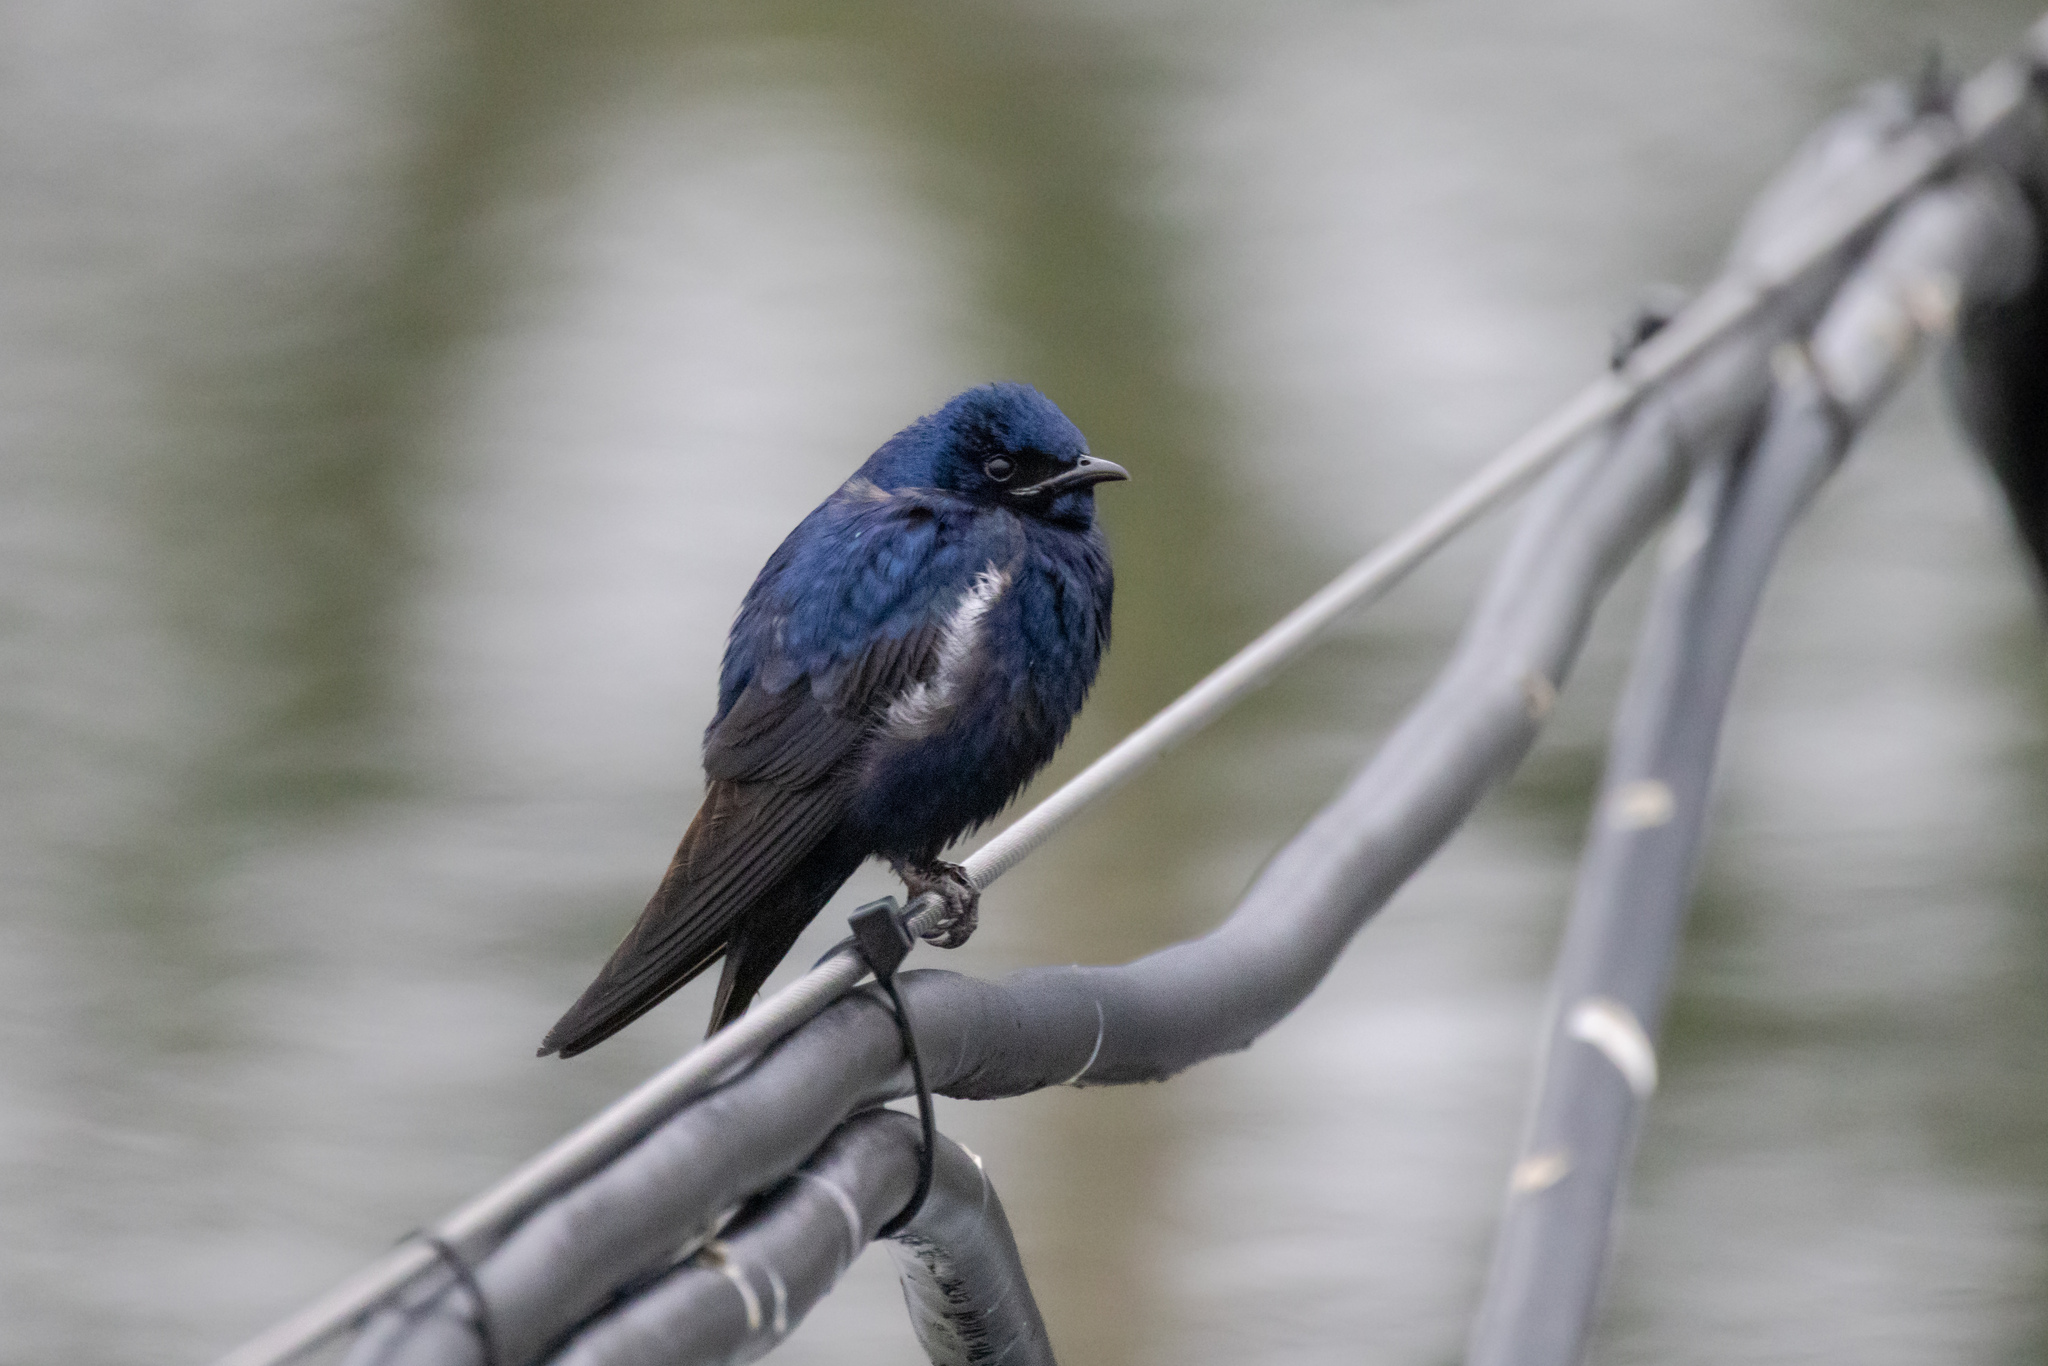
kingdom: Animalia
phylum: Chordata
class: Aves
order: Passeriformes
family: Hirundinidae
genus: Progne
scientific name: Progne subis
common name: Purple martin
